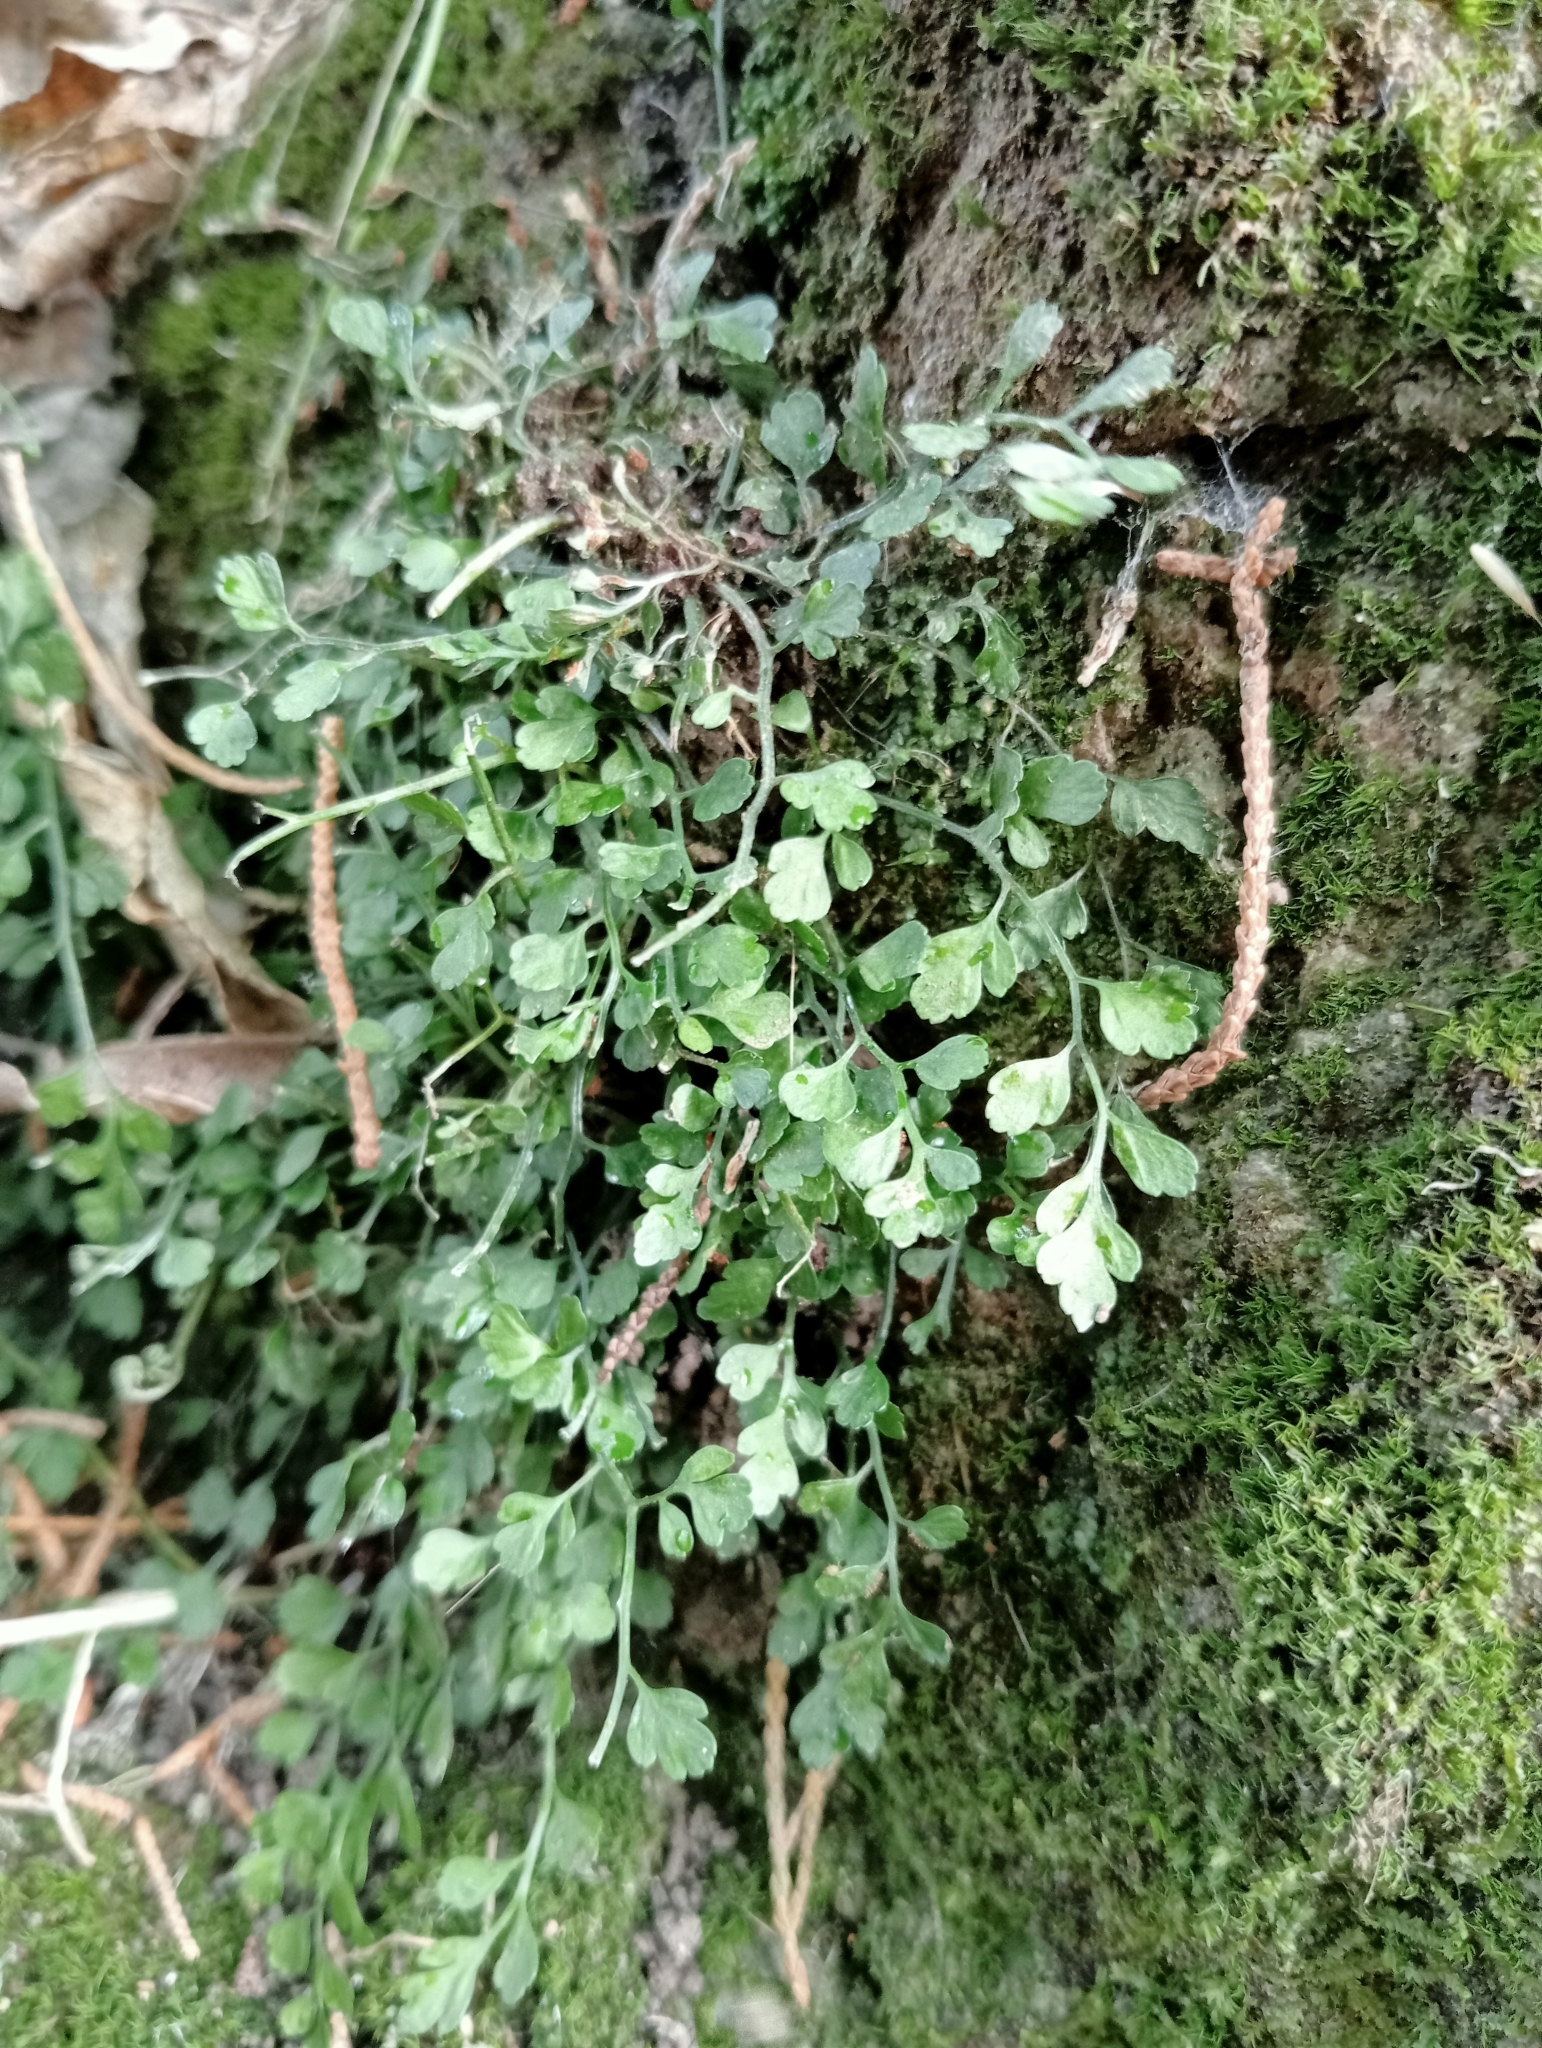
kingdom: Plantae
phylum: Tracheophyta
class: Polypodiopsida
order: Polypodiales
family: Aspleniaceae
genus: Asplenium
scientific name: Asplenium hookerianum
